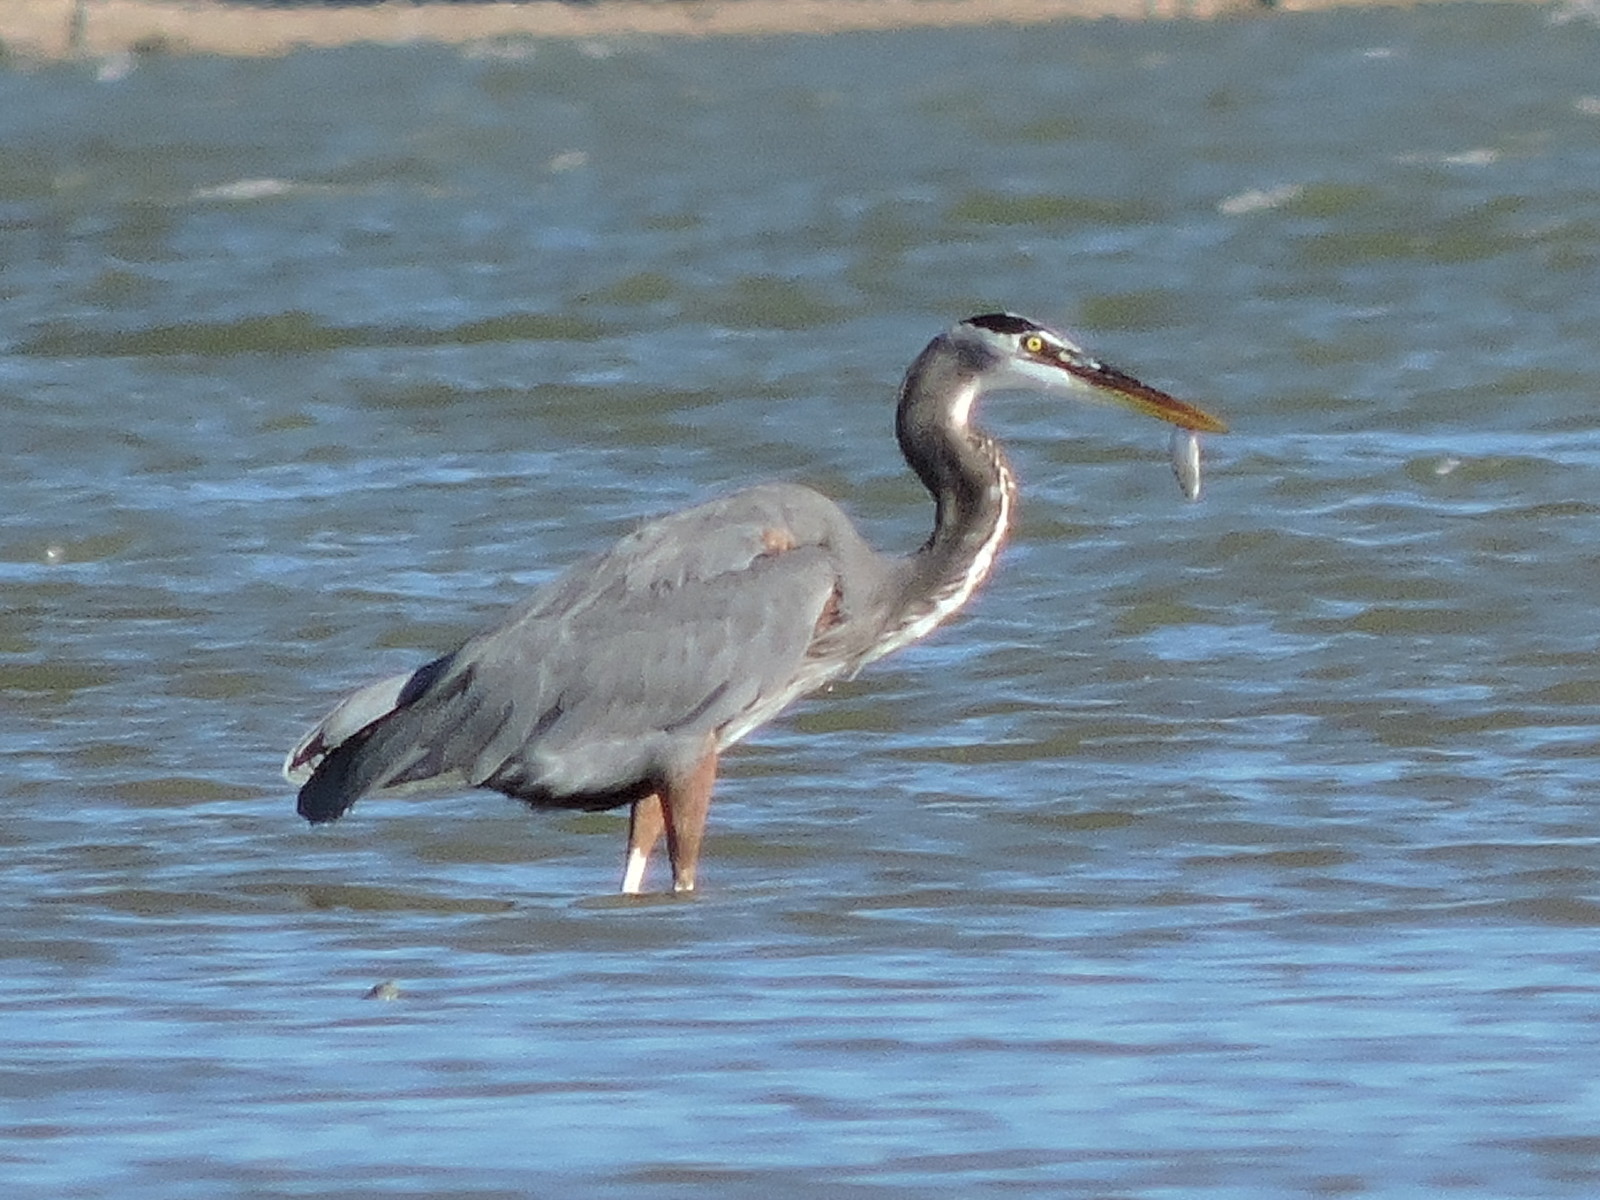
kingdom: Animalia
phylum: Chordata
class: Aves
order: Pelecaniformes
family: Ardeidae
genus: Ardea
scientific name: Ardea herodias
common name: Great blue heron
